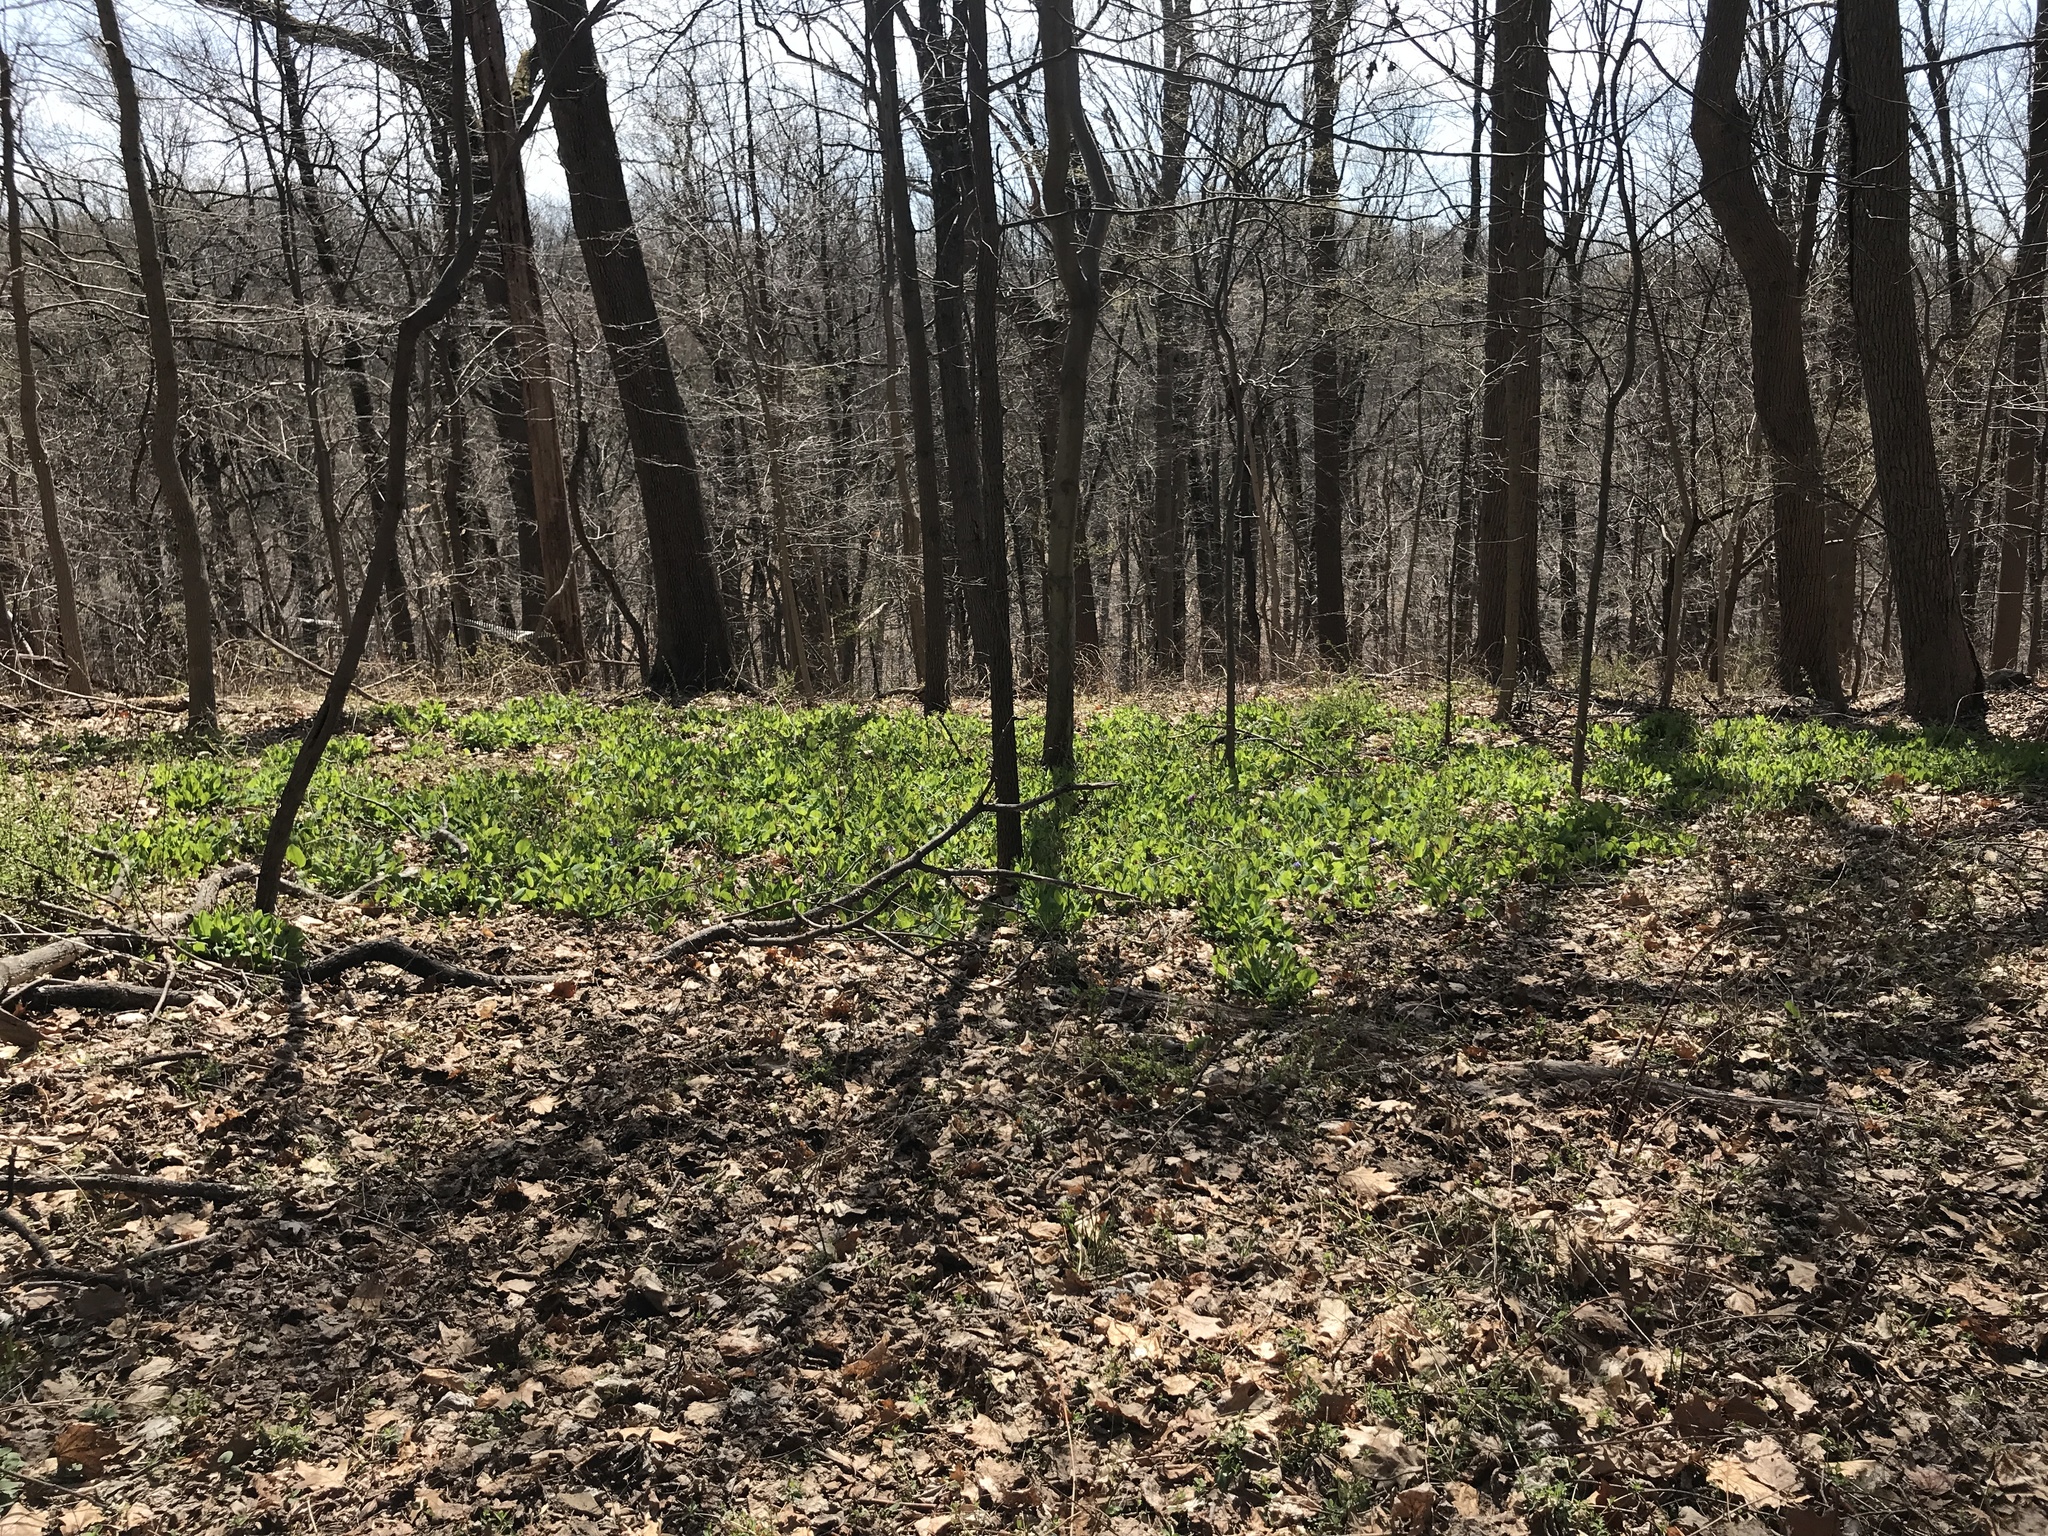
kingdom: Plantae
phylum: Tracheophyta
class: Magnoliopsida
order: Boraginales
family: Boraginaceae
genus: Mertensia
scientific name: Mertensia virginica
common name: Virginia bluebells
